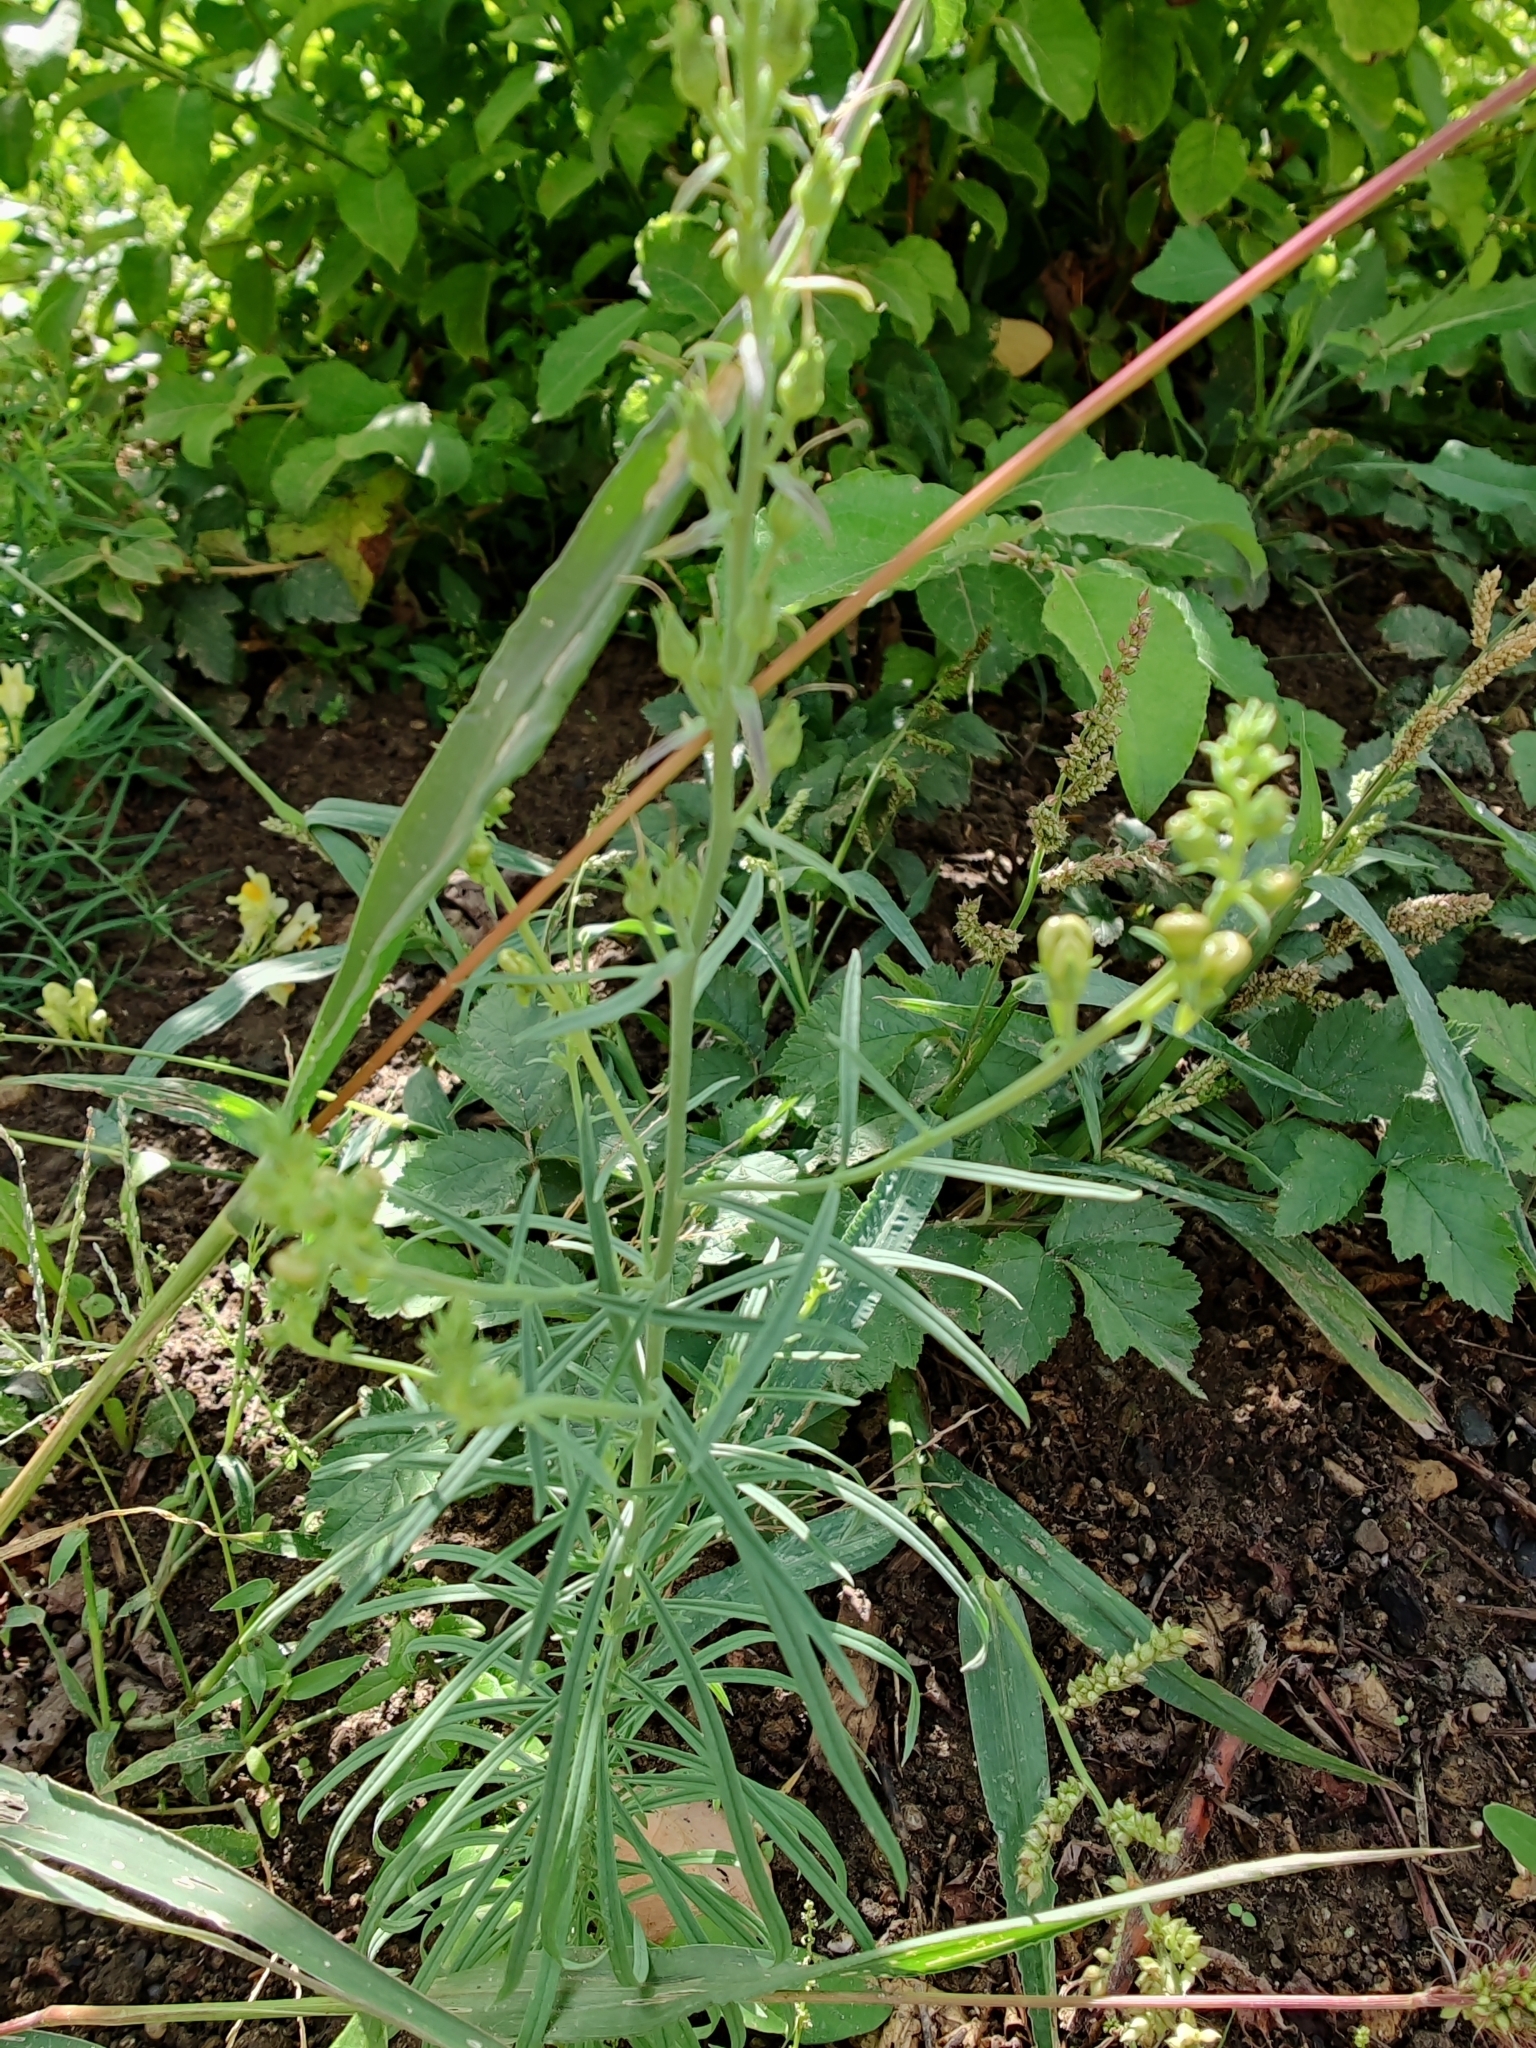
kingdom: Plantae
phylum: Tracheophyta
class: Magnoliopsida
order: Lamiales
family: Plantaginaceae
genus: Linaria
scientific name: Linaria vulgaris
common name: Butter and eggs
